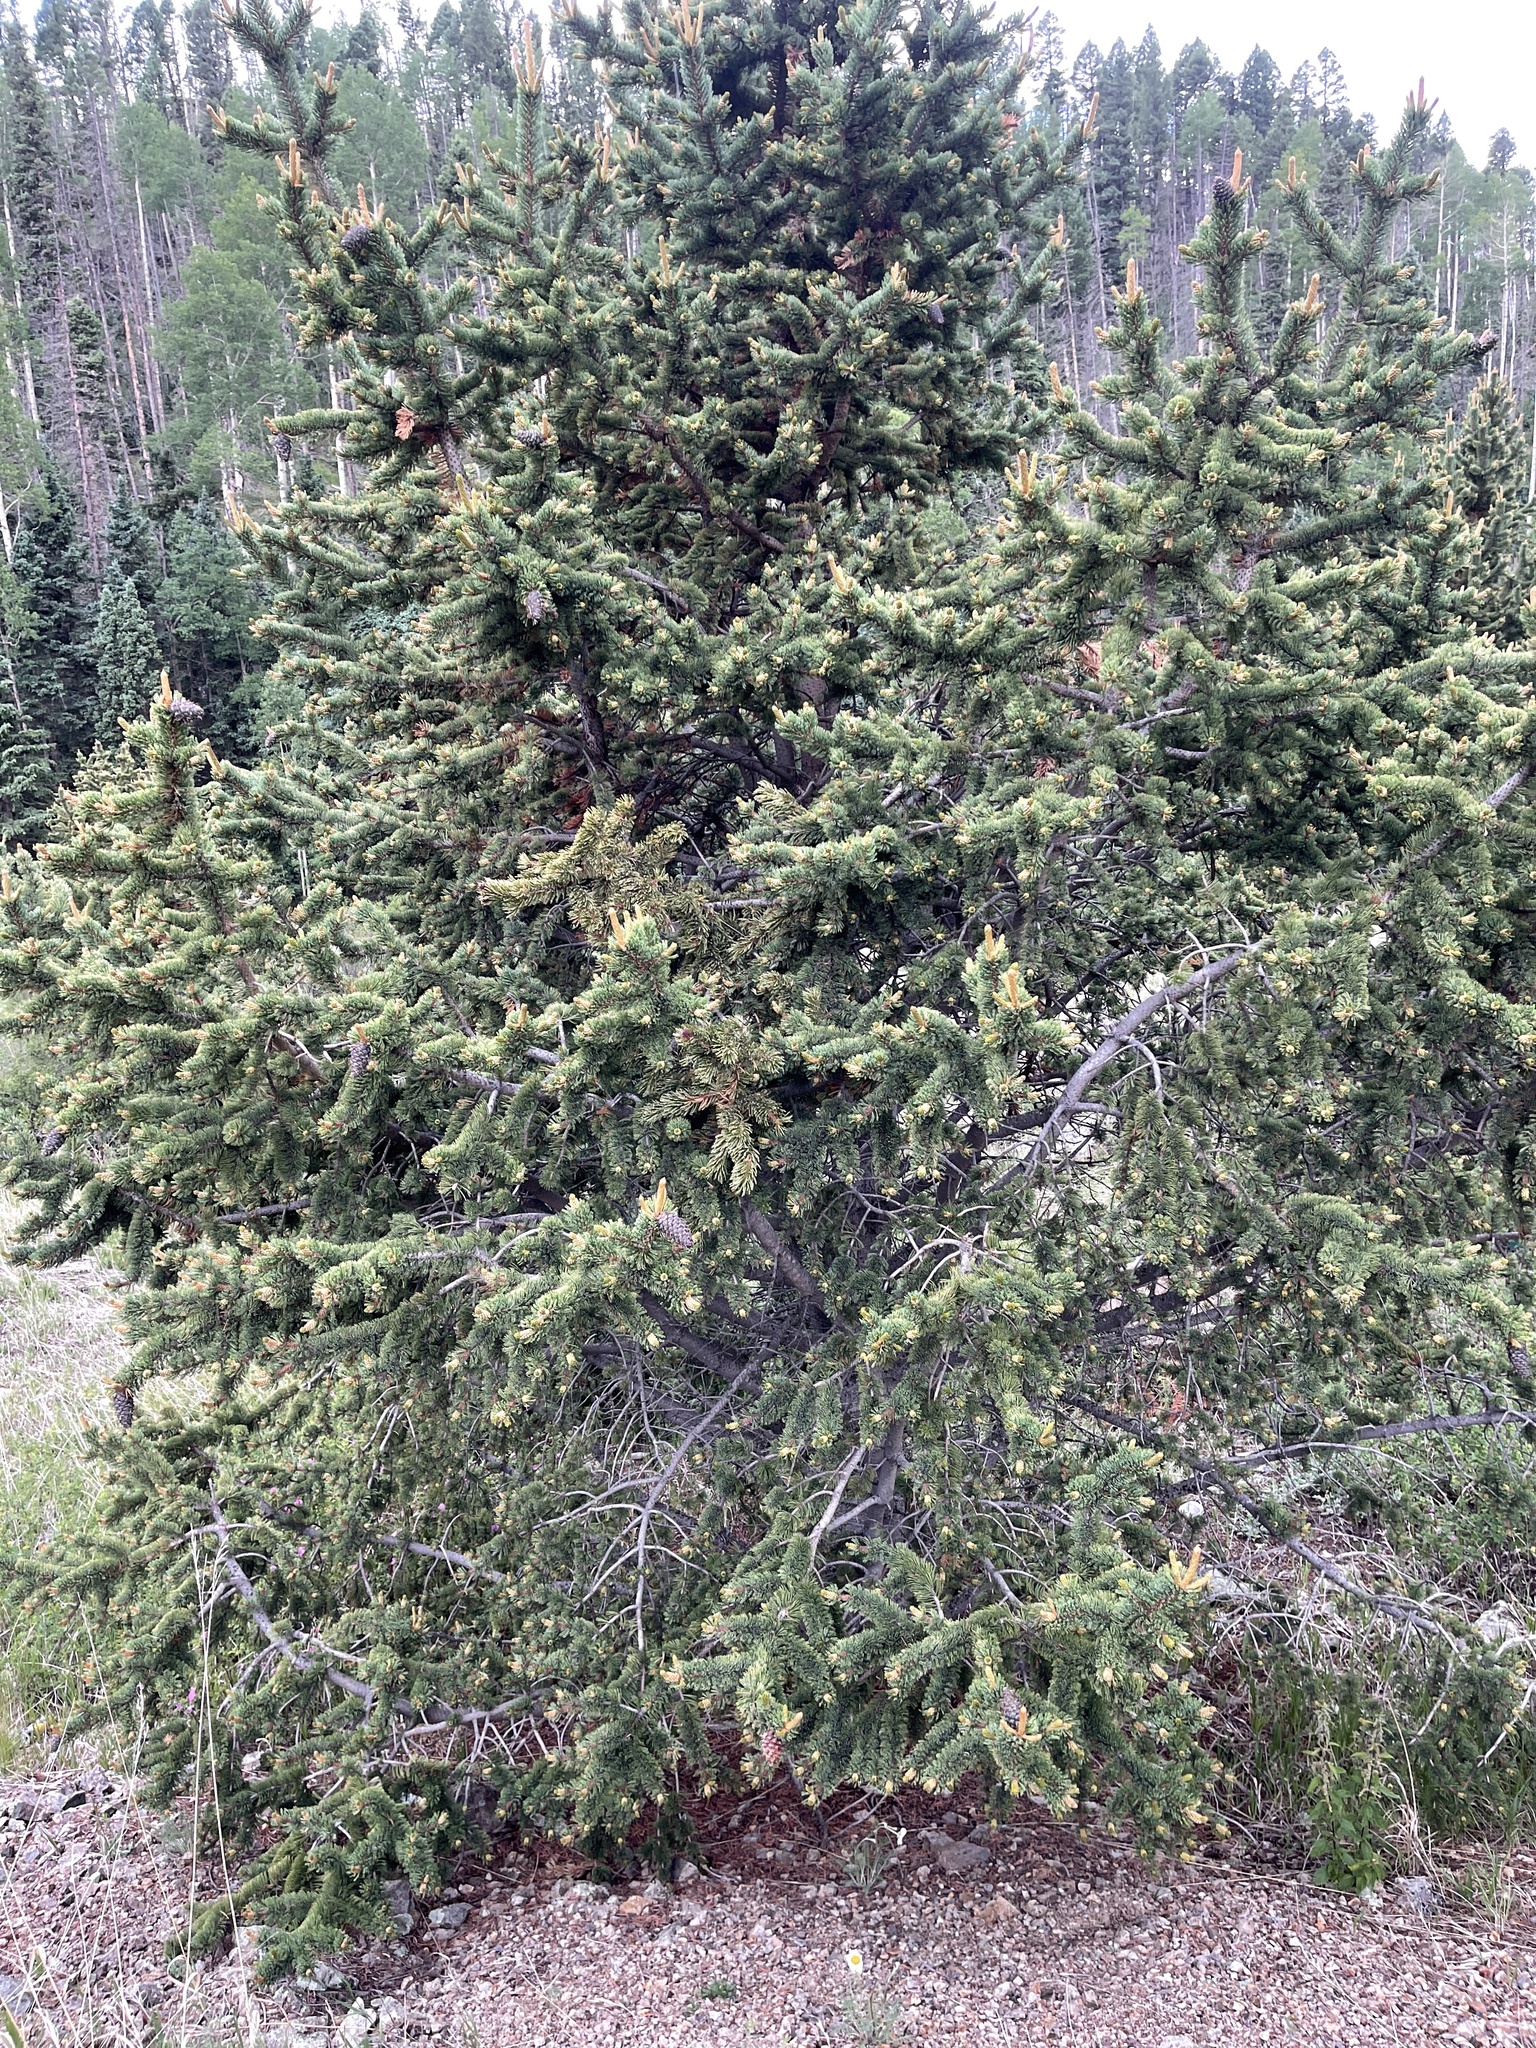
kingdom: Plantae
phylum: Tracheophyta
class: Pinopsida
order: Pinales
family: Pinaceae
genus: Pinus
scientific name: Pinus aristata
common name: Colorado bristlecone pine
